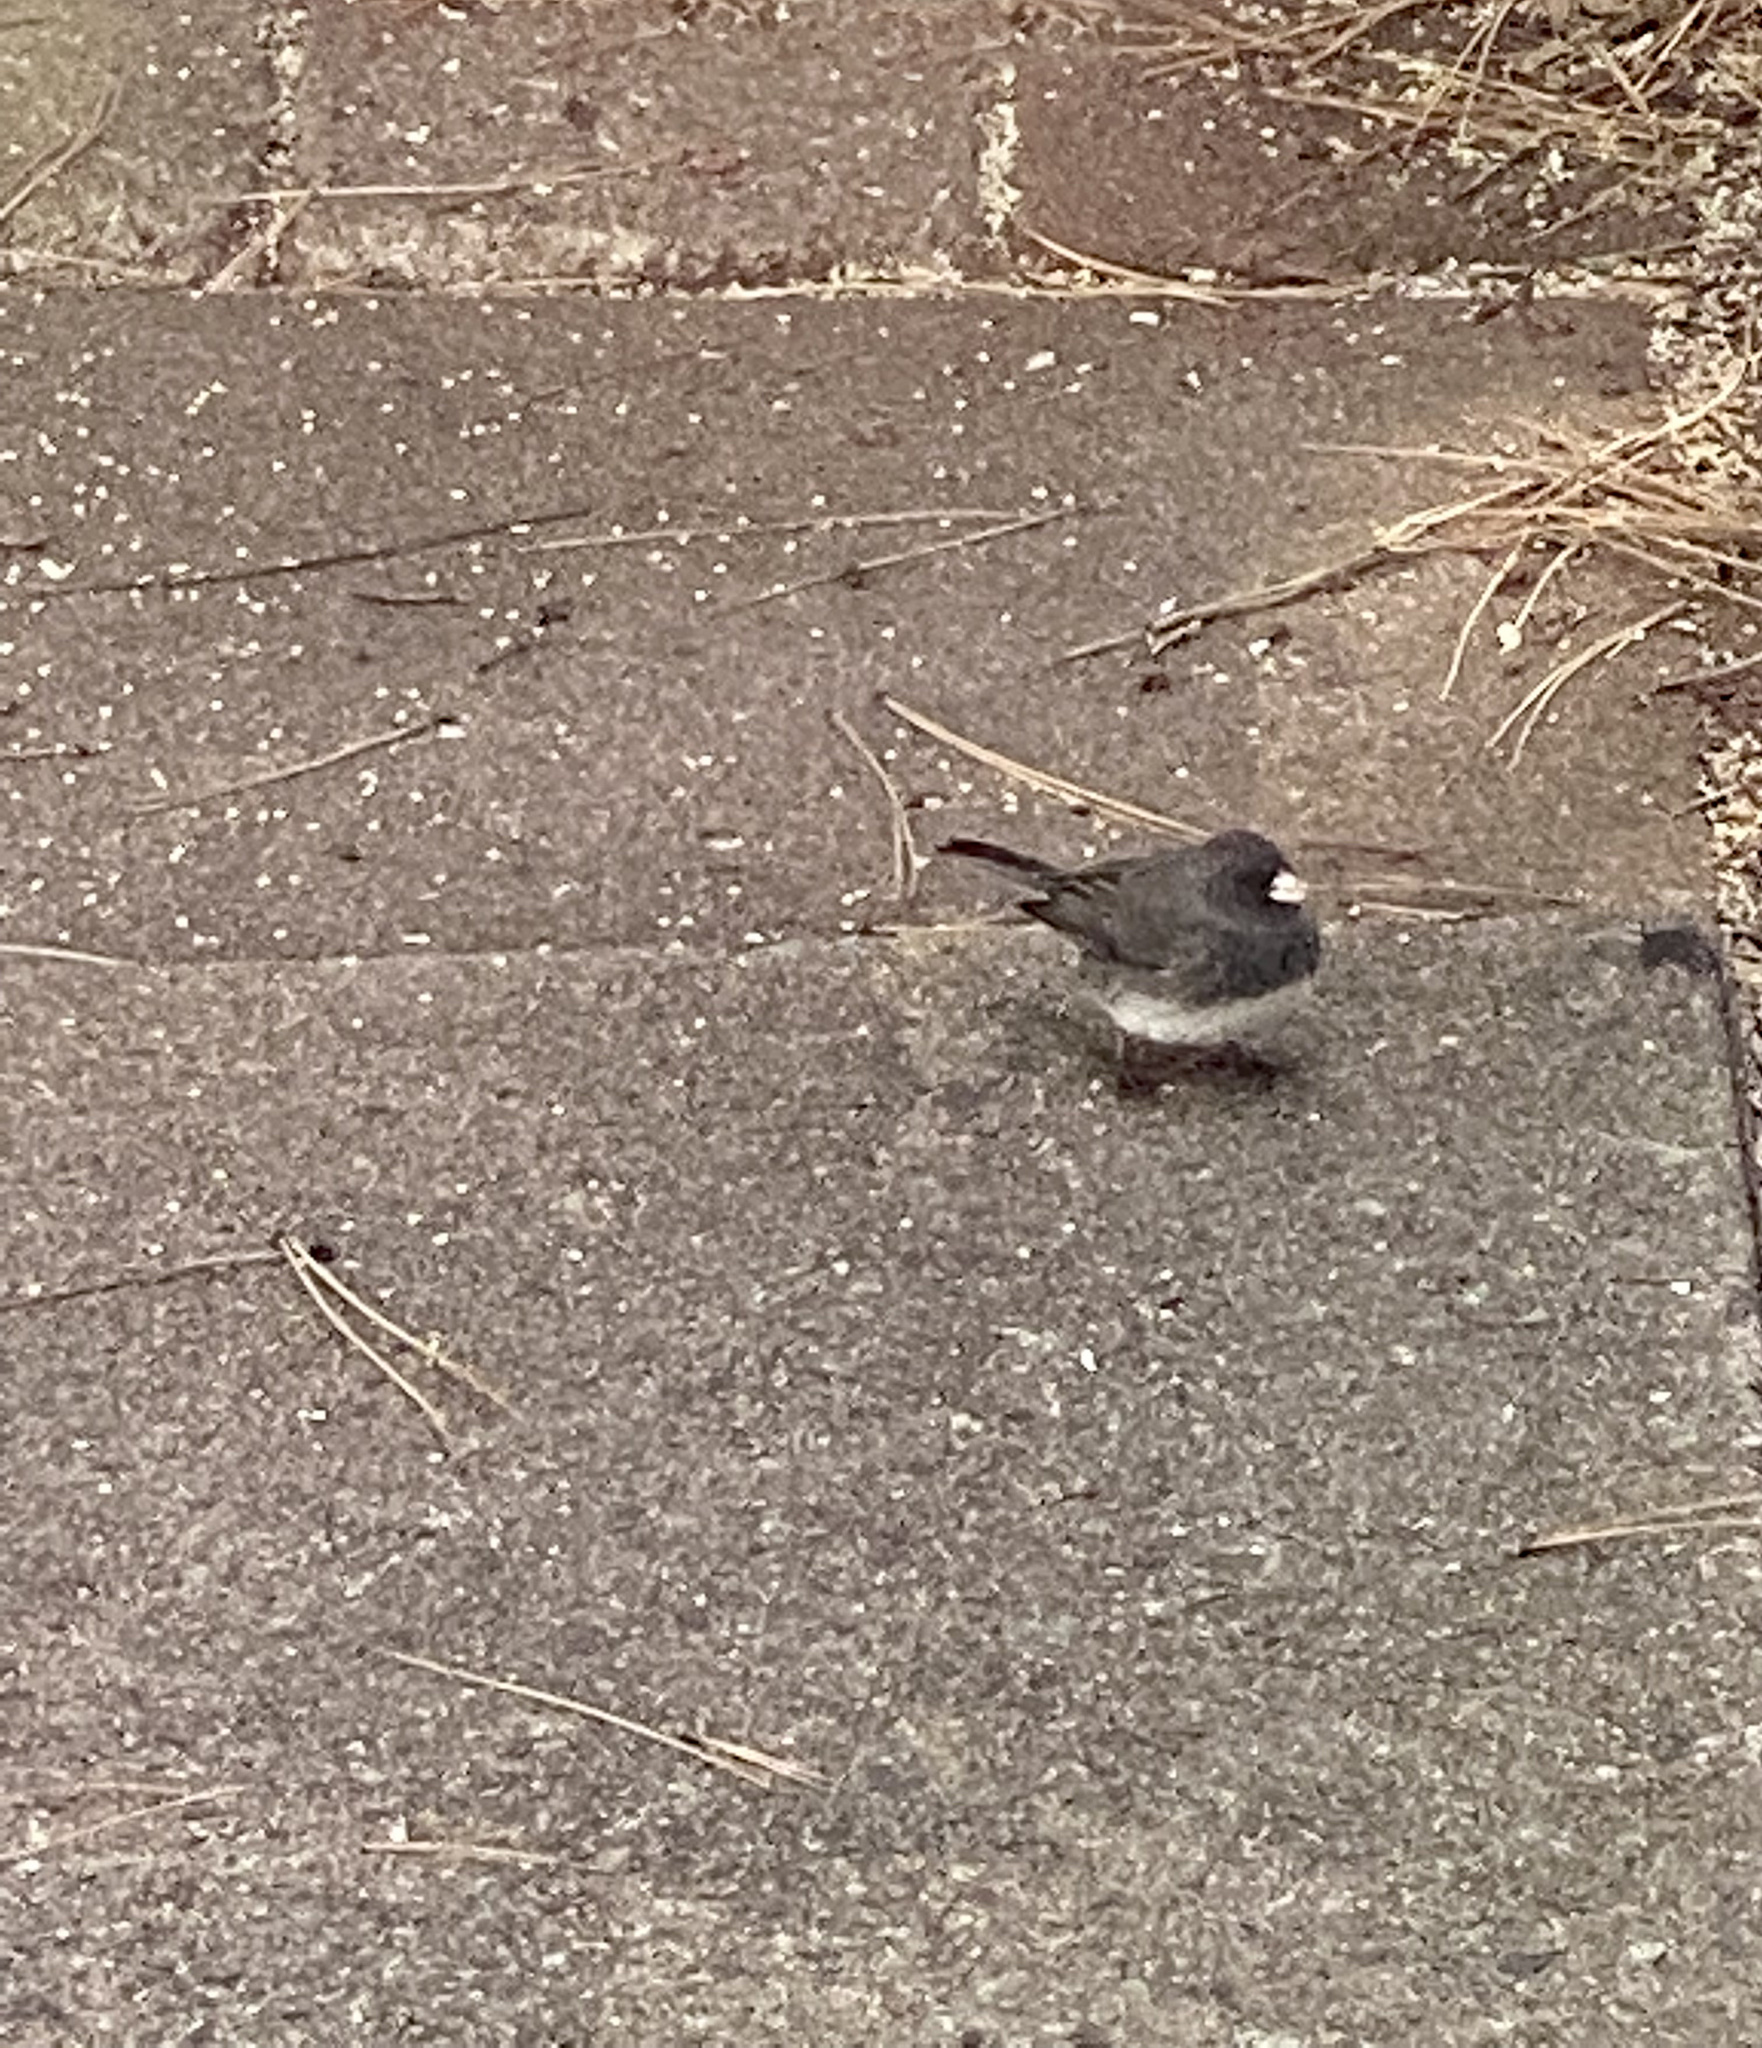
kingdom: Animalia
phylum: Chordata
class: Aves
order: Passeriformes
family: Passerellidae
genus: Junco
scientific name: Junco hyemalis
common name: Dark-eyed junco
